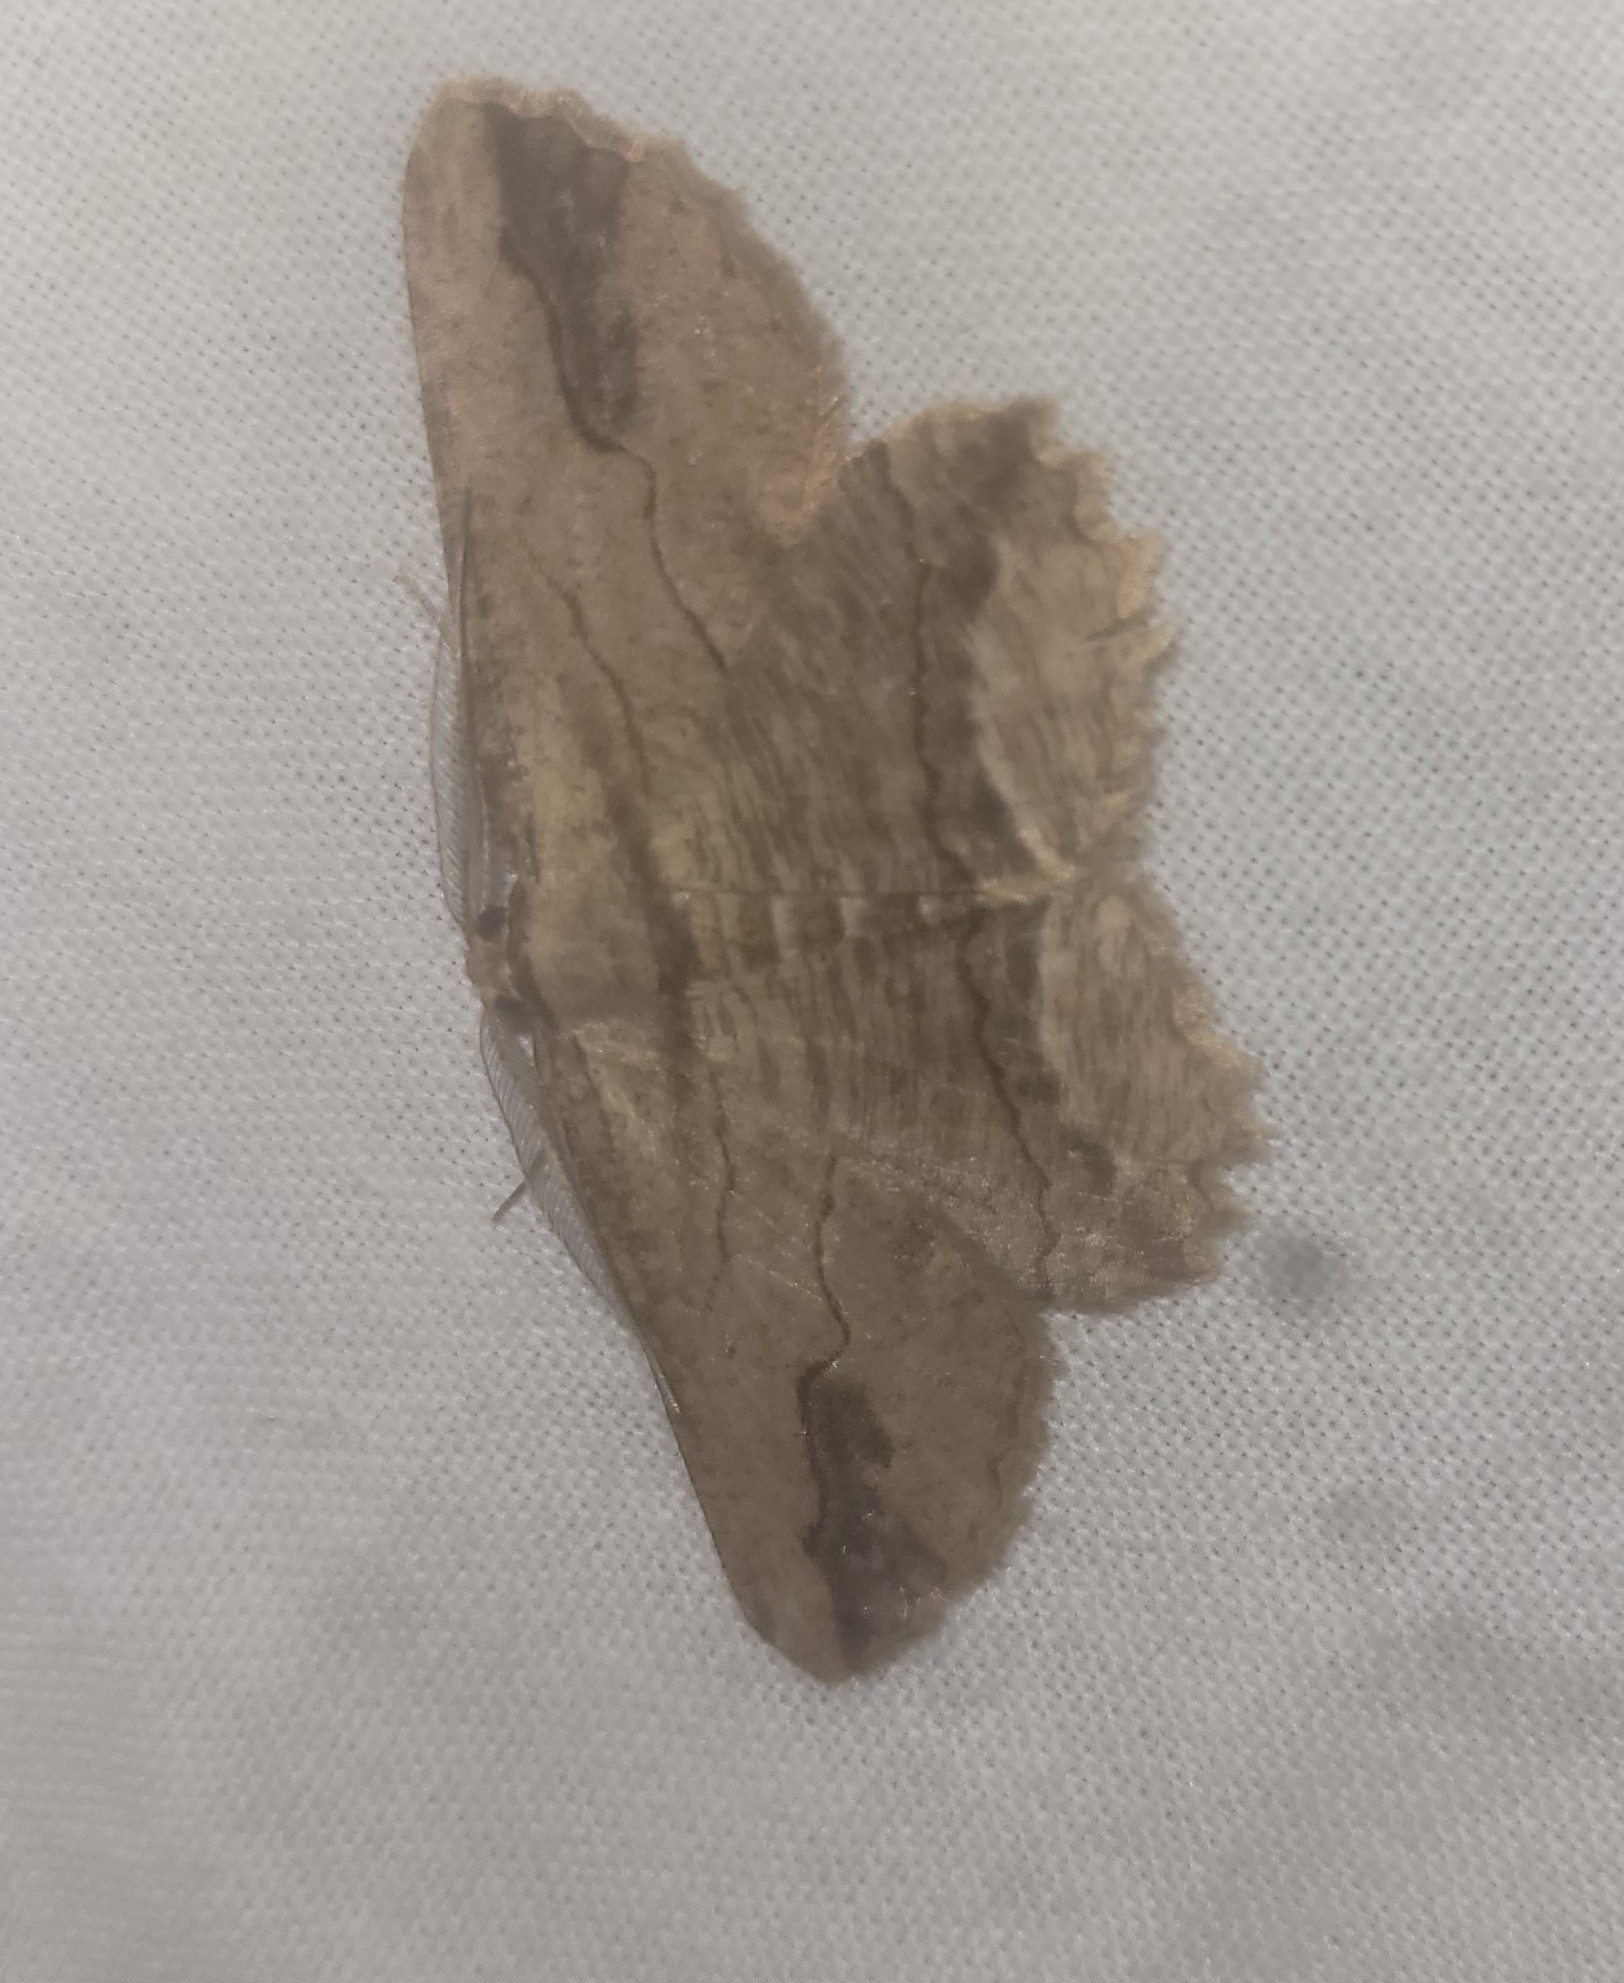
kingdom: Animalia
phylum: Arthropoda
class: Insecta
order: Lepidoptera
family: Geometridae
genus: Menophra
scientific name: Menophra abruptaria
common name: Waved umber
